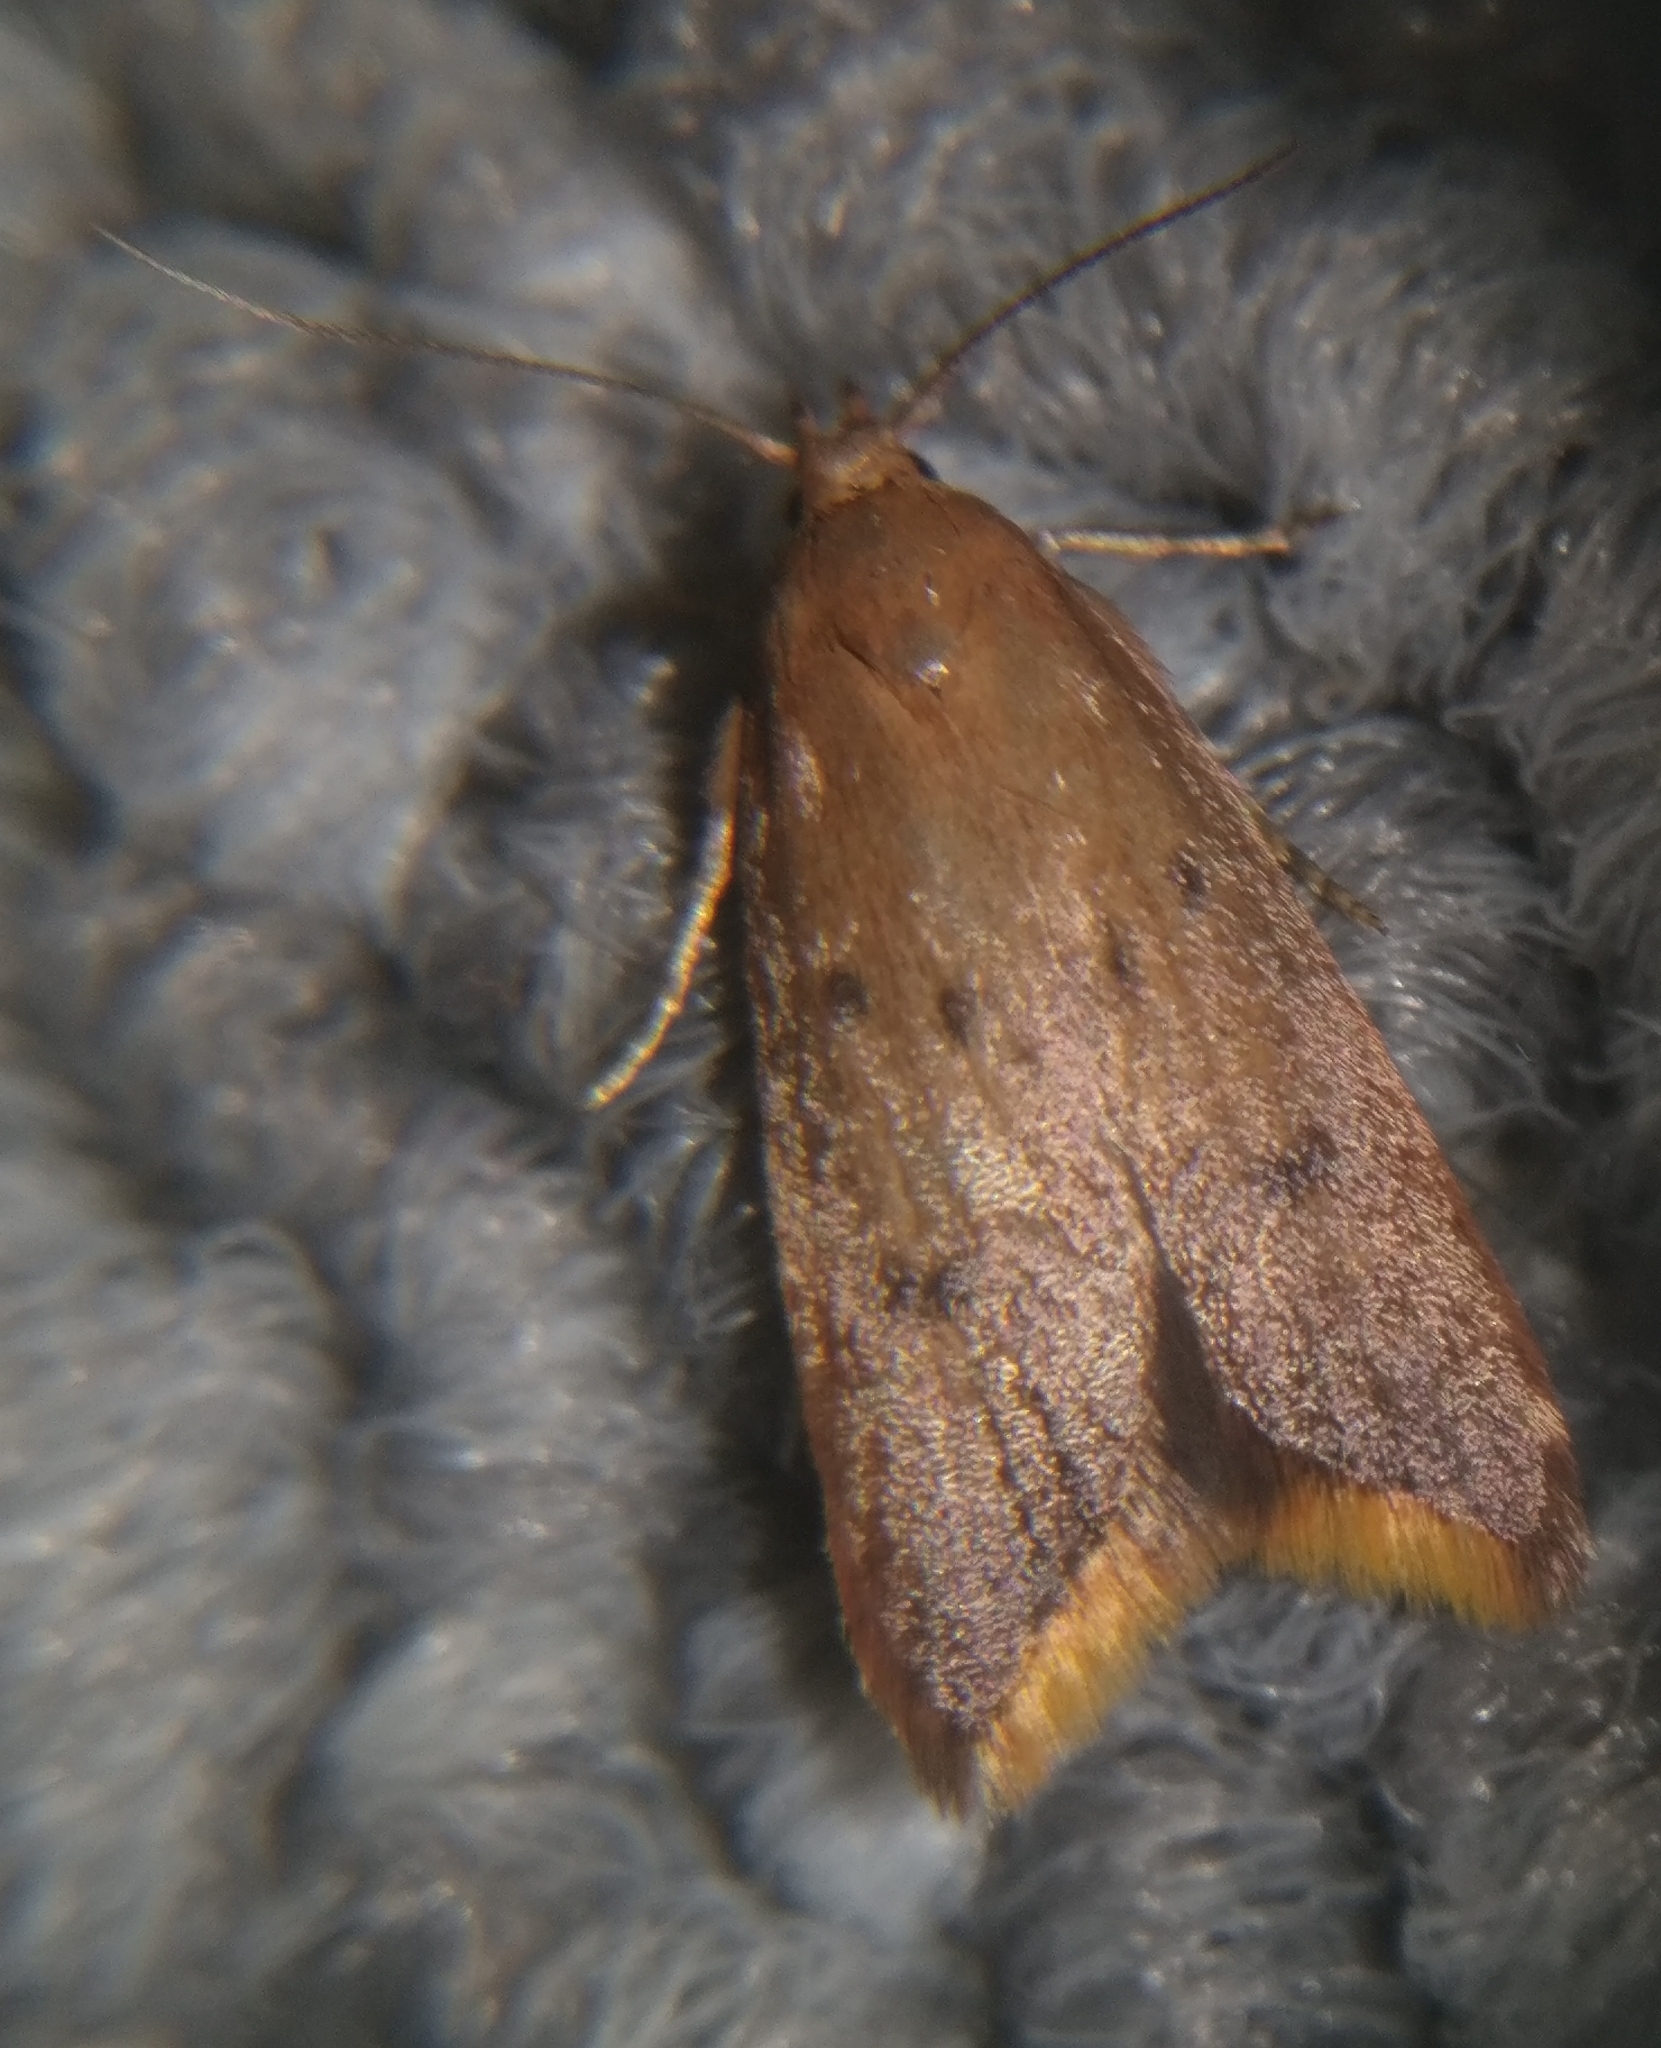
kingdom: Animalia
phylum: Arthropoda
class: Insecta
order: Lepidoptera
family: Oecophoridae
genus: Tachystola
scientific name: Tachystola acroxantha
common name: Ruddy streak
